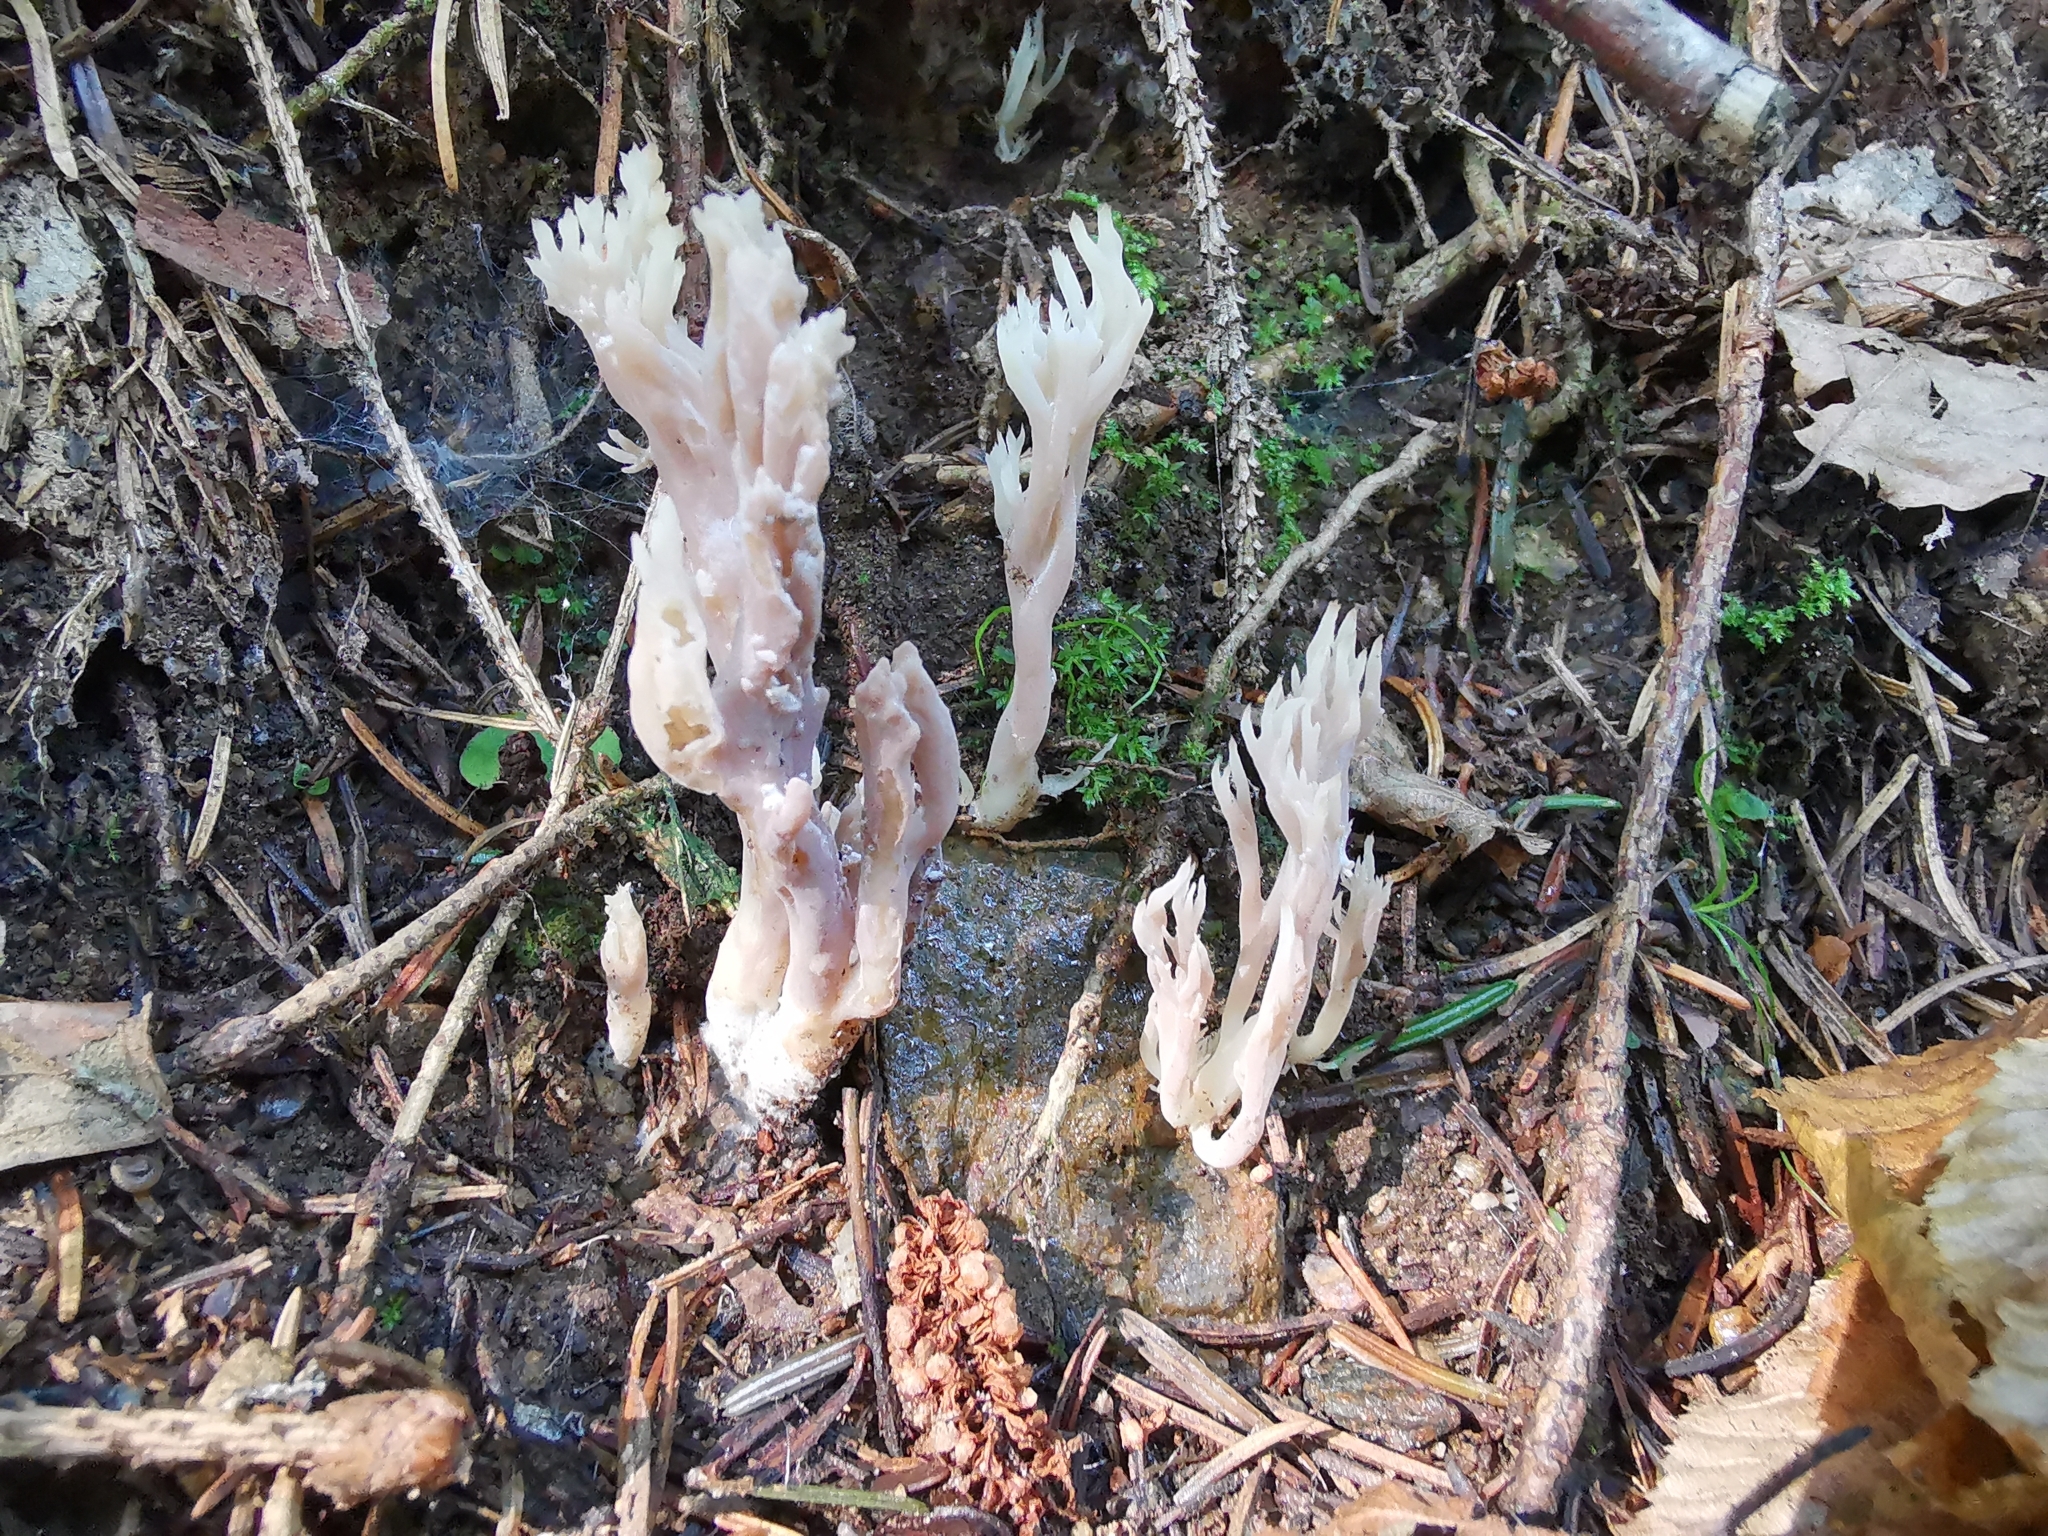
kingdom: Fungi
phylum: Basidiomycota
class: Agaricomycetes
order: Cantharellales
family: Hydnaceae
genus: Clavulina
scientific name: Clavulina coralloides
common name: Crested coral
